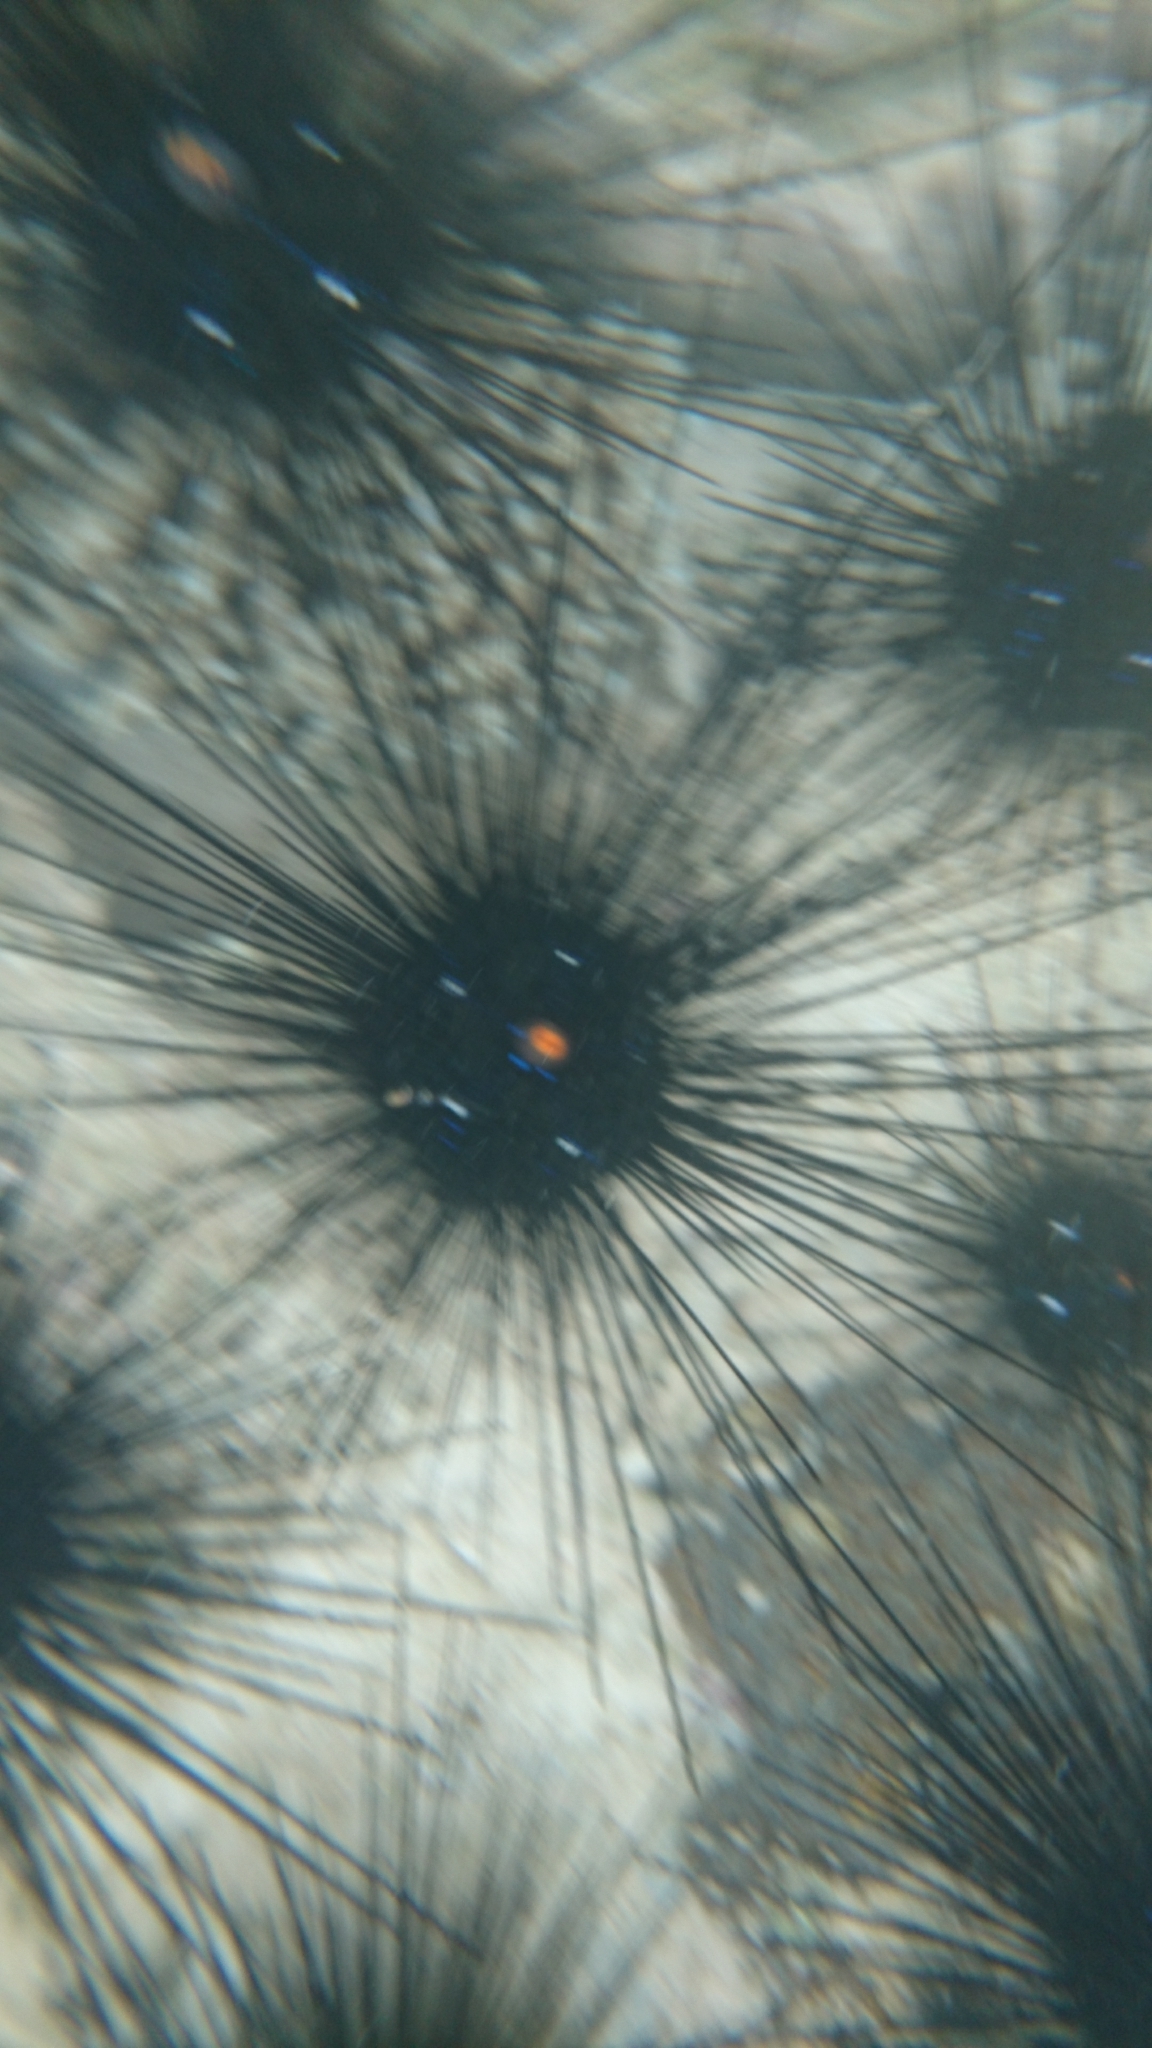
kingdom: Animalia
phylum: Echinodermata
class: Echinoidea
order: Diadematoida
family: Diadematidae
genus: Diadema
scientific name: Diadema setosum
